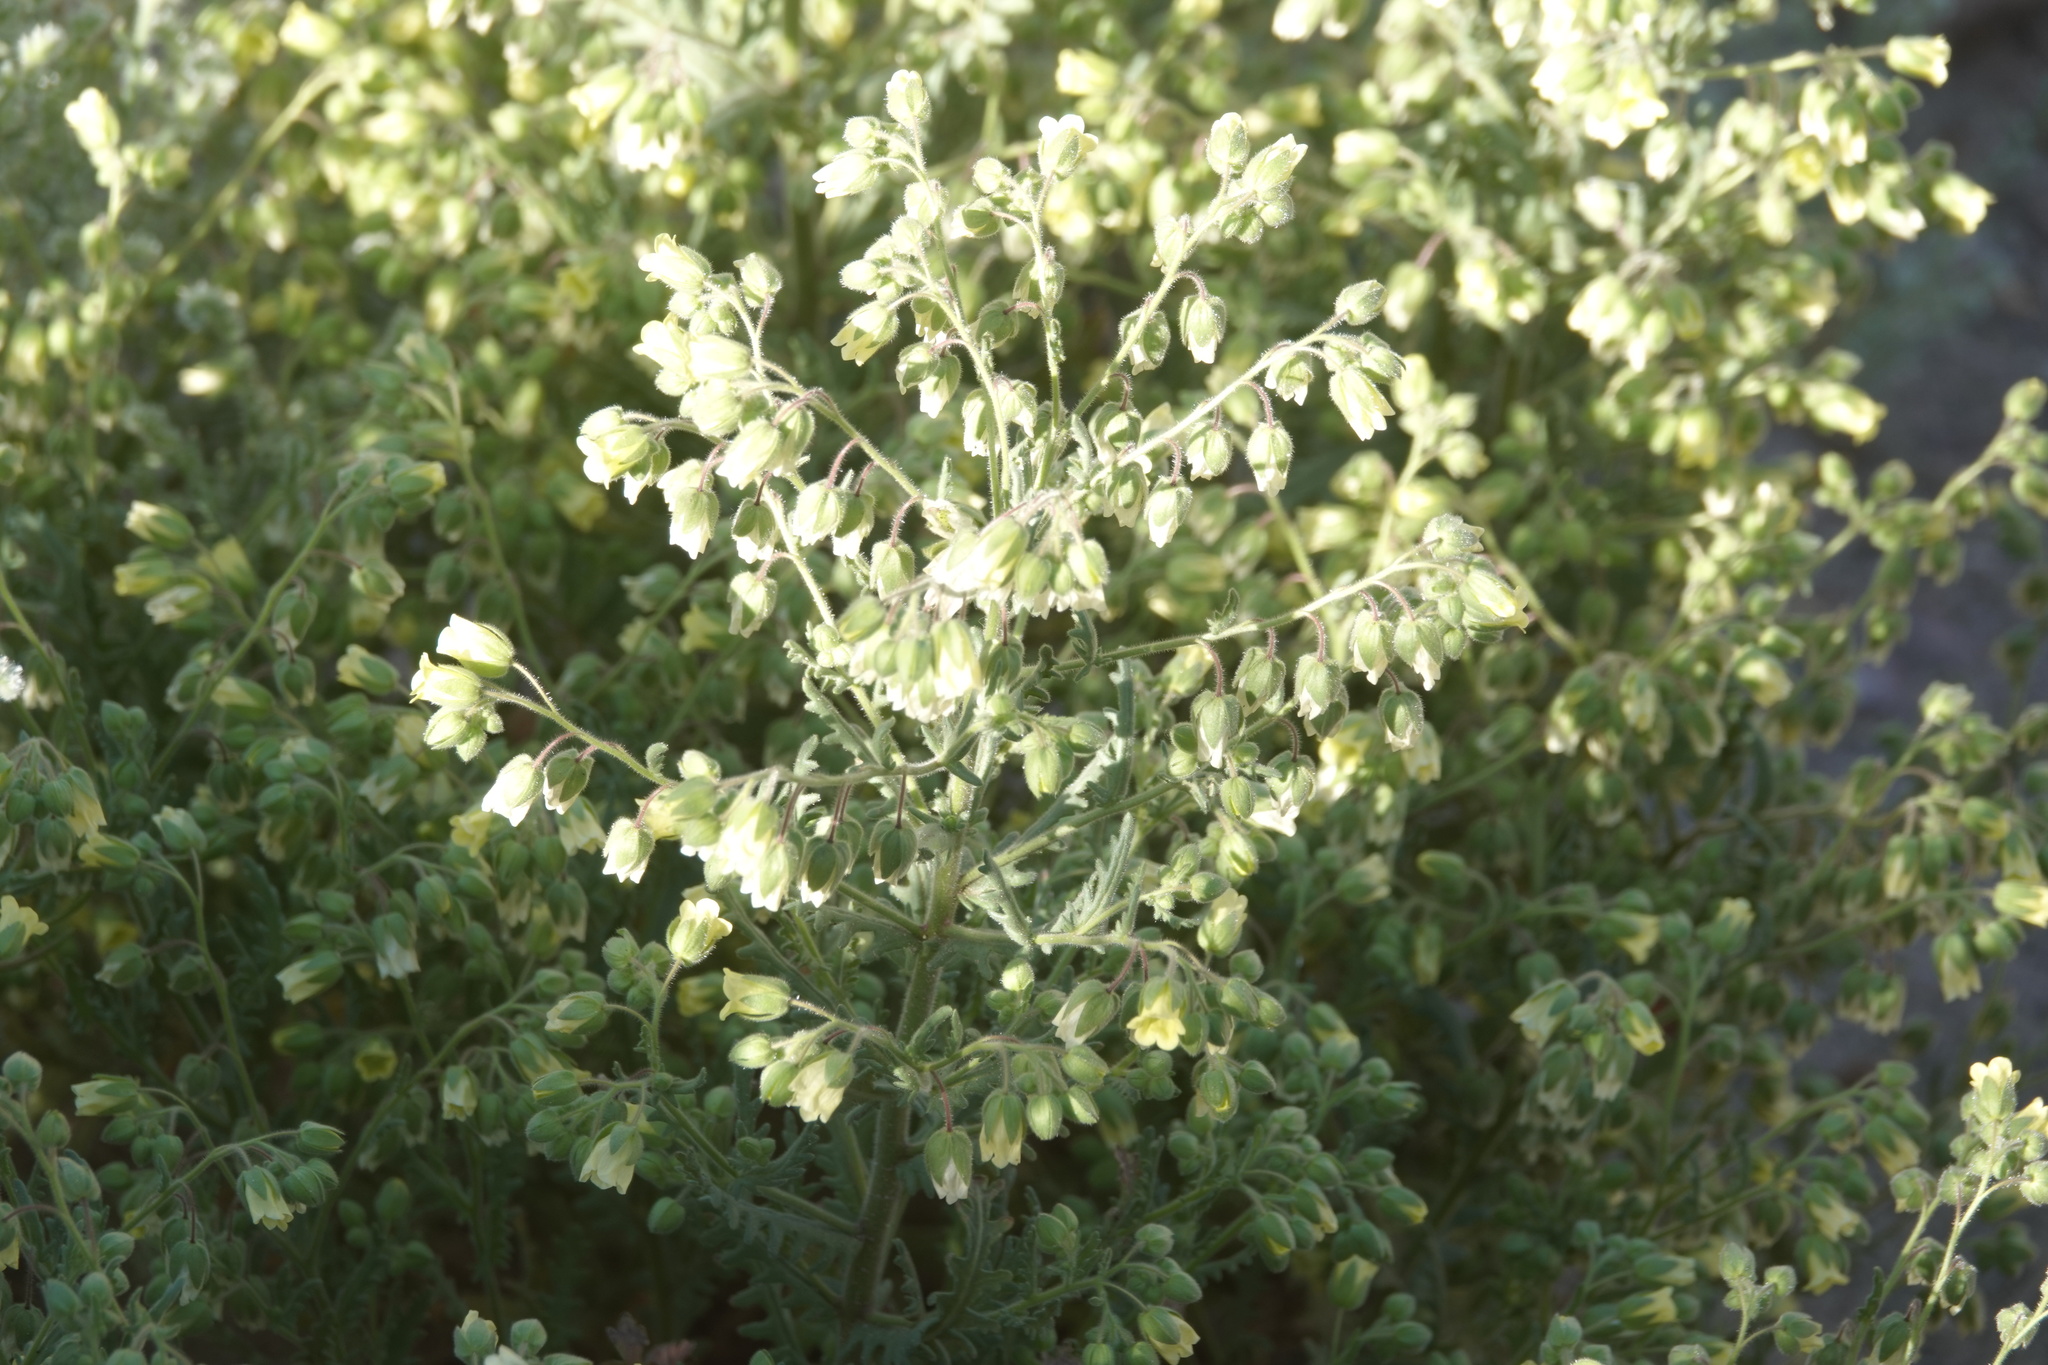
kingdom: Plantae
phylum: Tracheophyta
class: Magnoliopsida
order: Boraginales
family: Hydrophyllaceae
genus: Emmenanthe
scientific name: Emmenanthe penduliflora
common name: Whispering-bells
